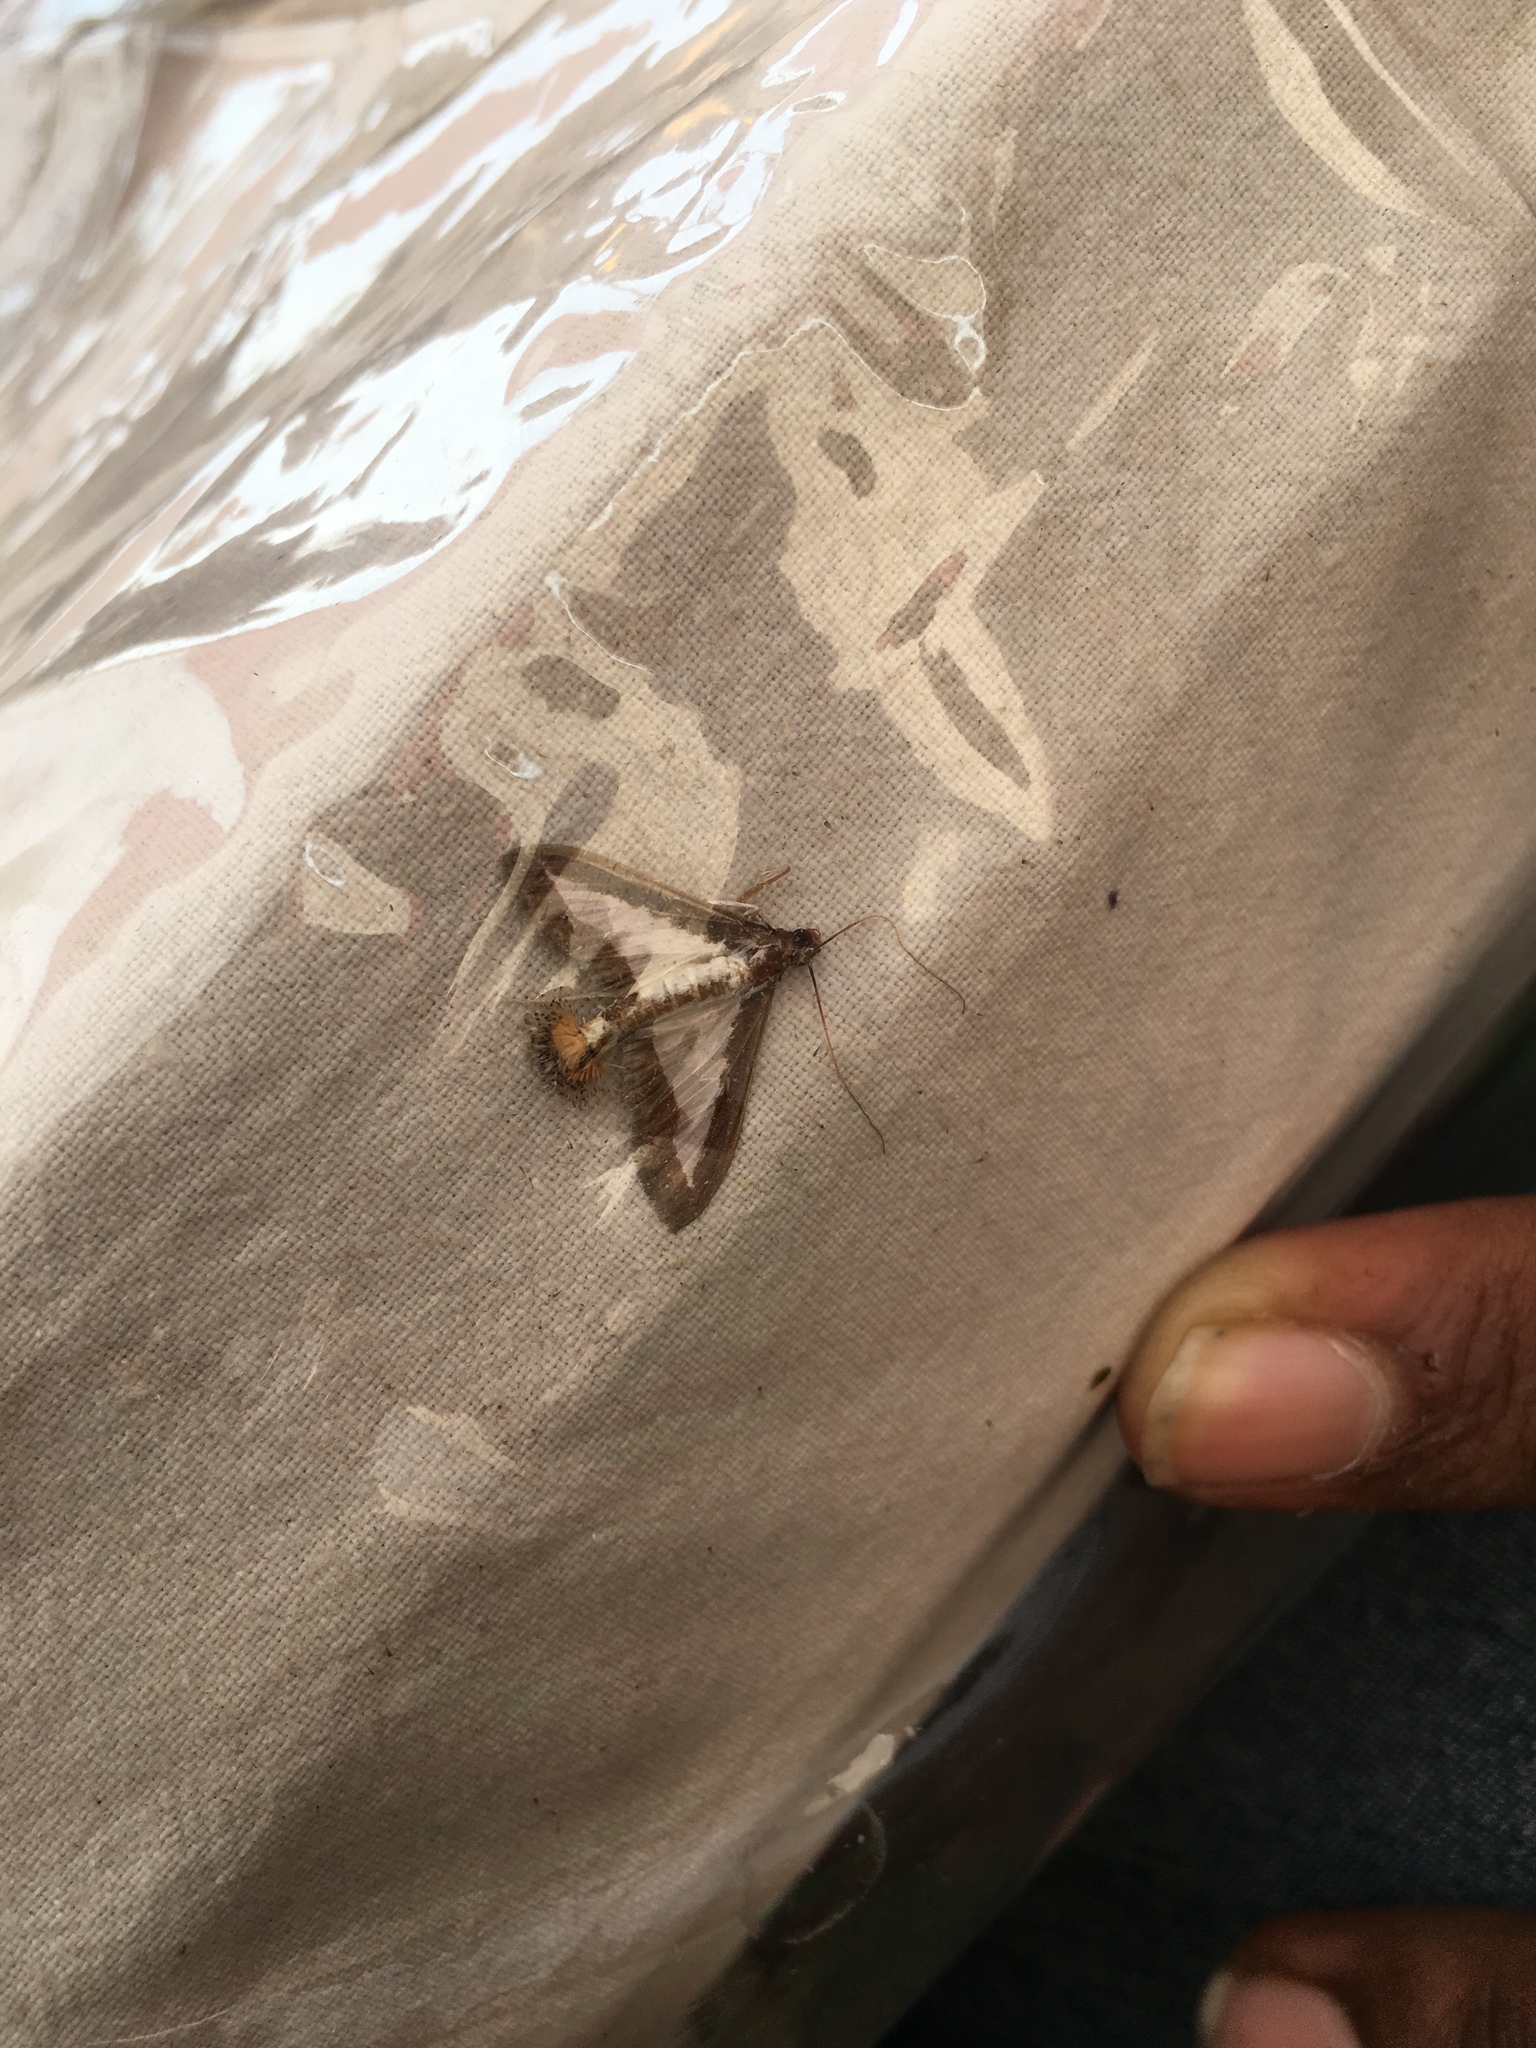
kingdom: Animalia
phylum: Arthropoda
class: Insecta
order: Lepidoptera
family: Crambidae
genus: Diaphania
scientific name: Diaphania indica
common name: Cucumber moth
